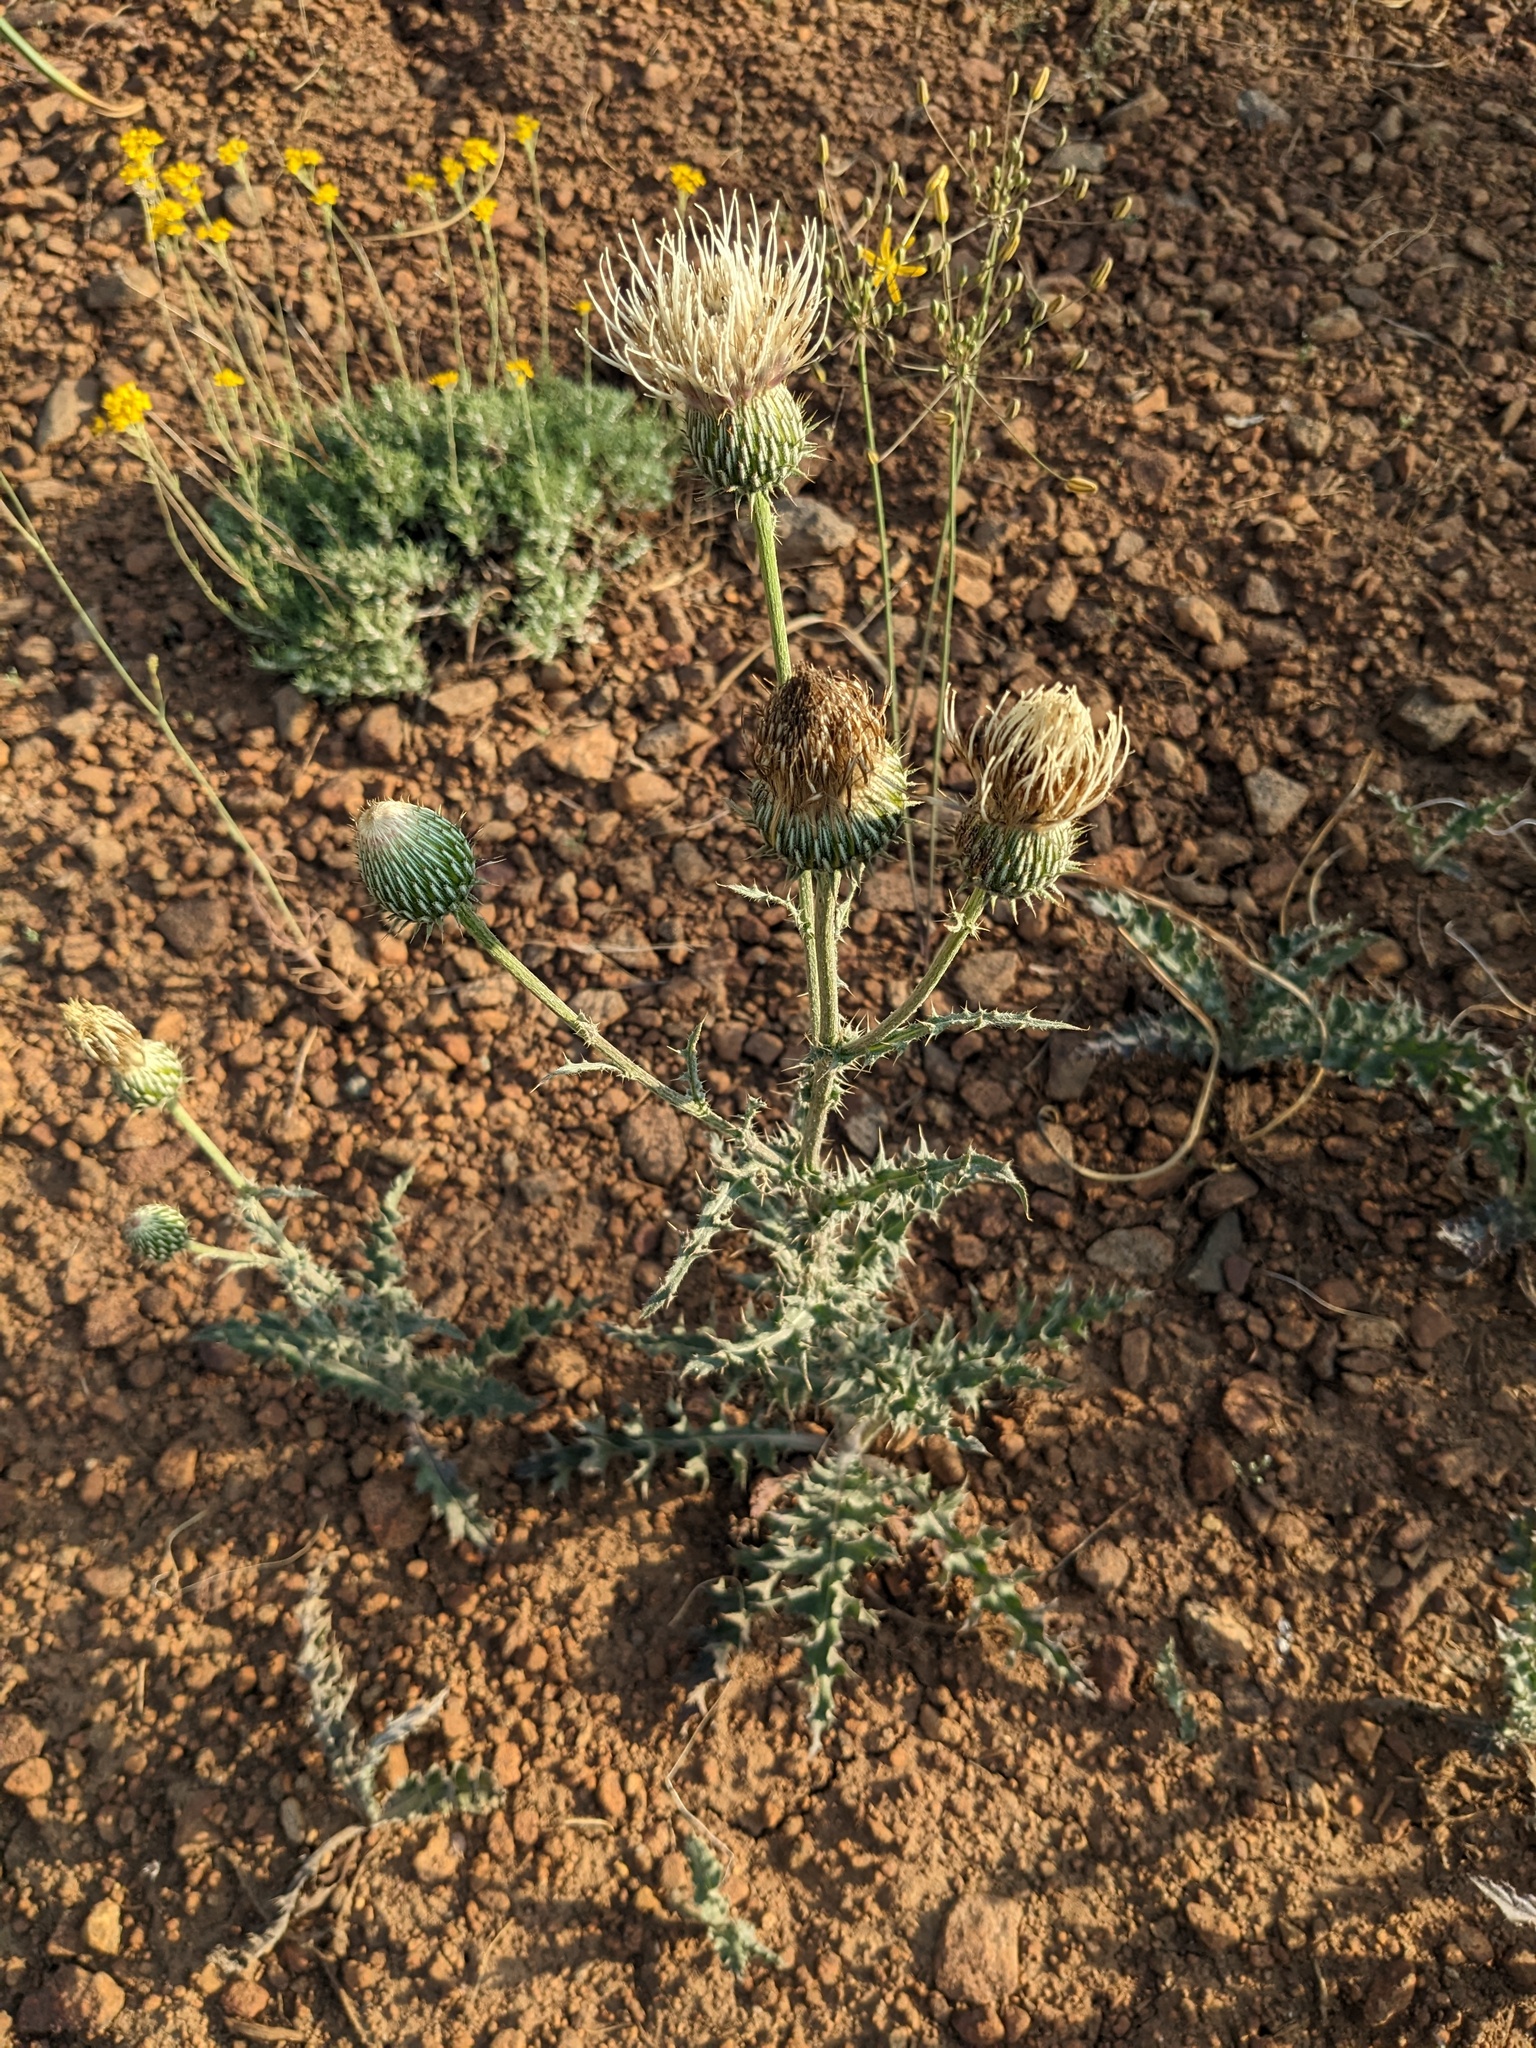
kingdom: Plantae
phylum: Tracheophyta
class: Magnoliopsida
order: Asterales
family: Asteraceae
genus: Cirsium
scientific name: Cirsium cymosum
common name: Peregrine thistle
